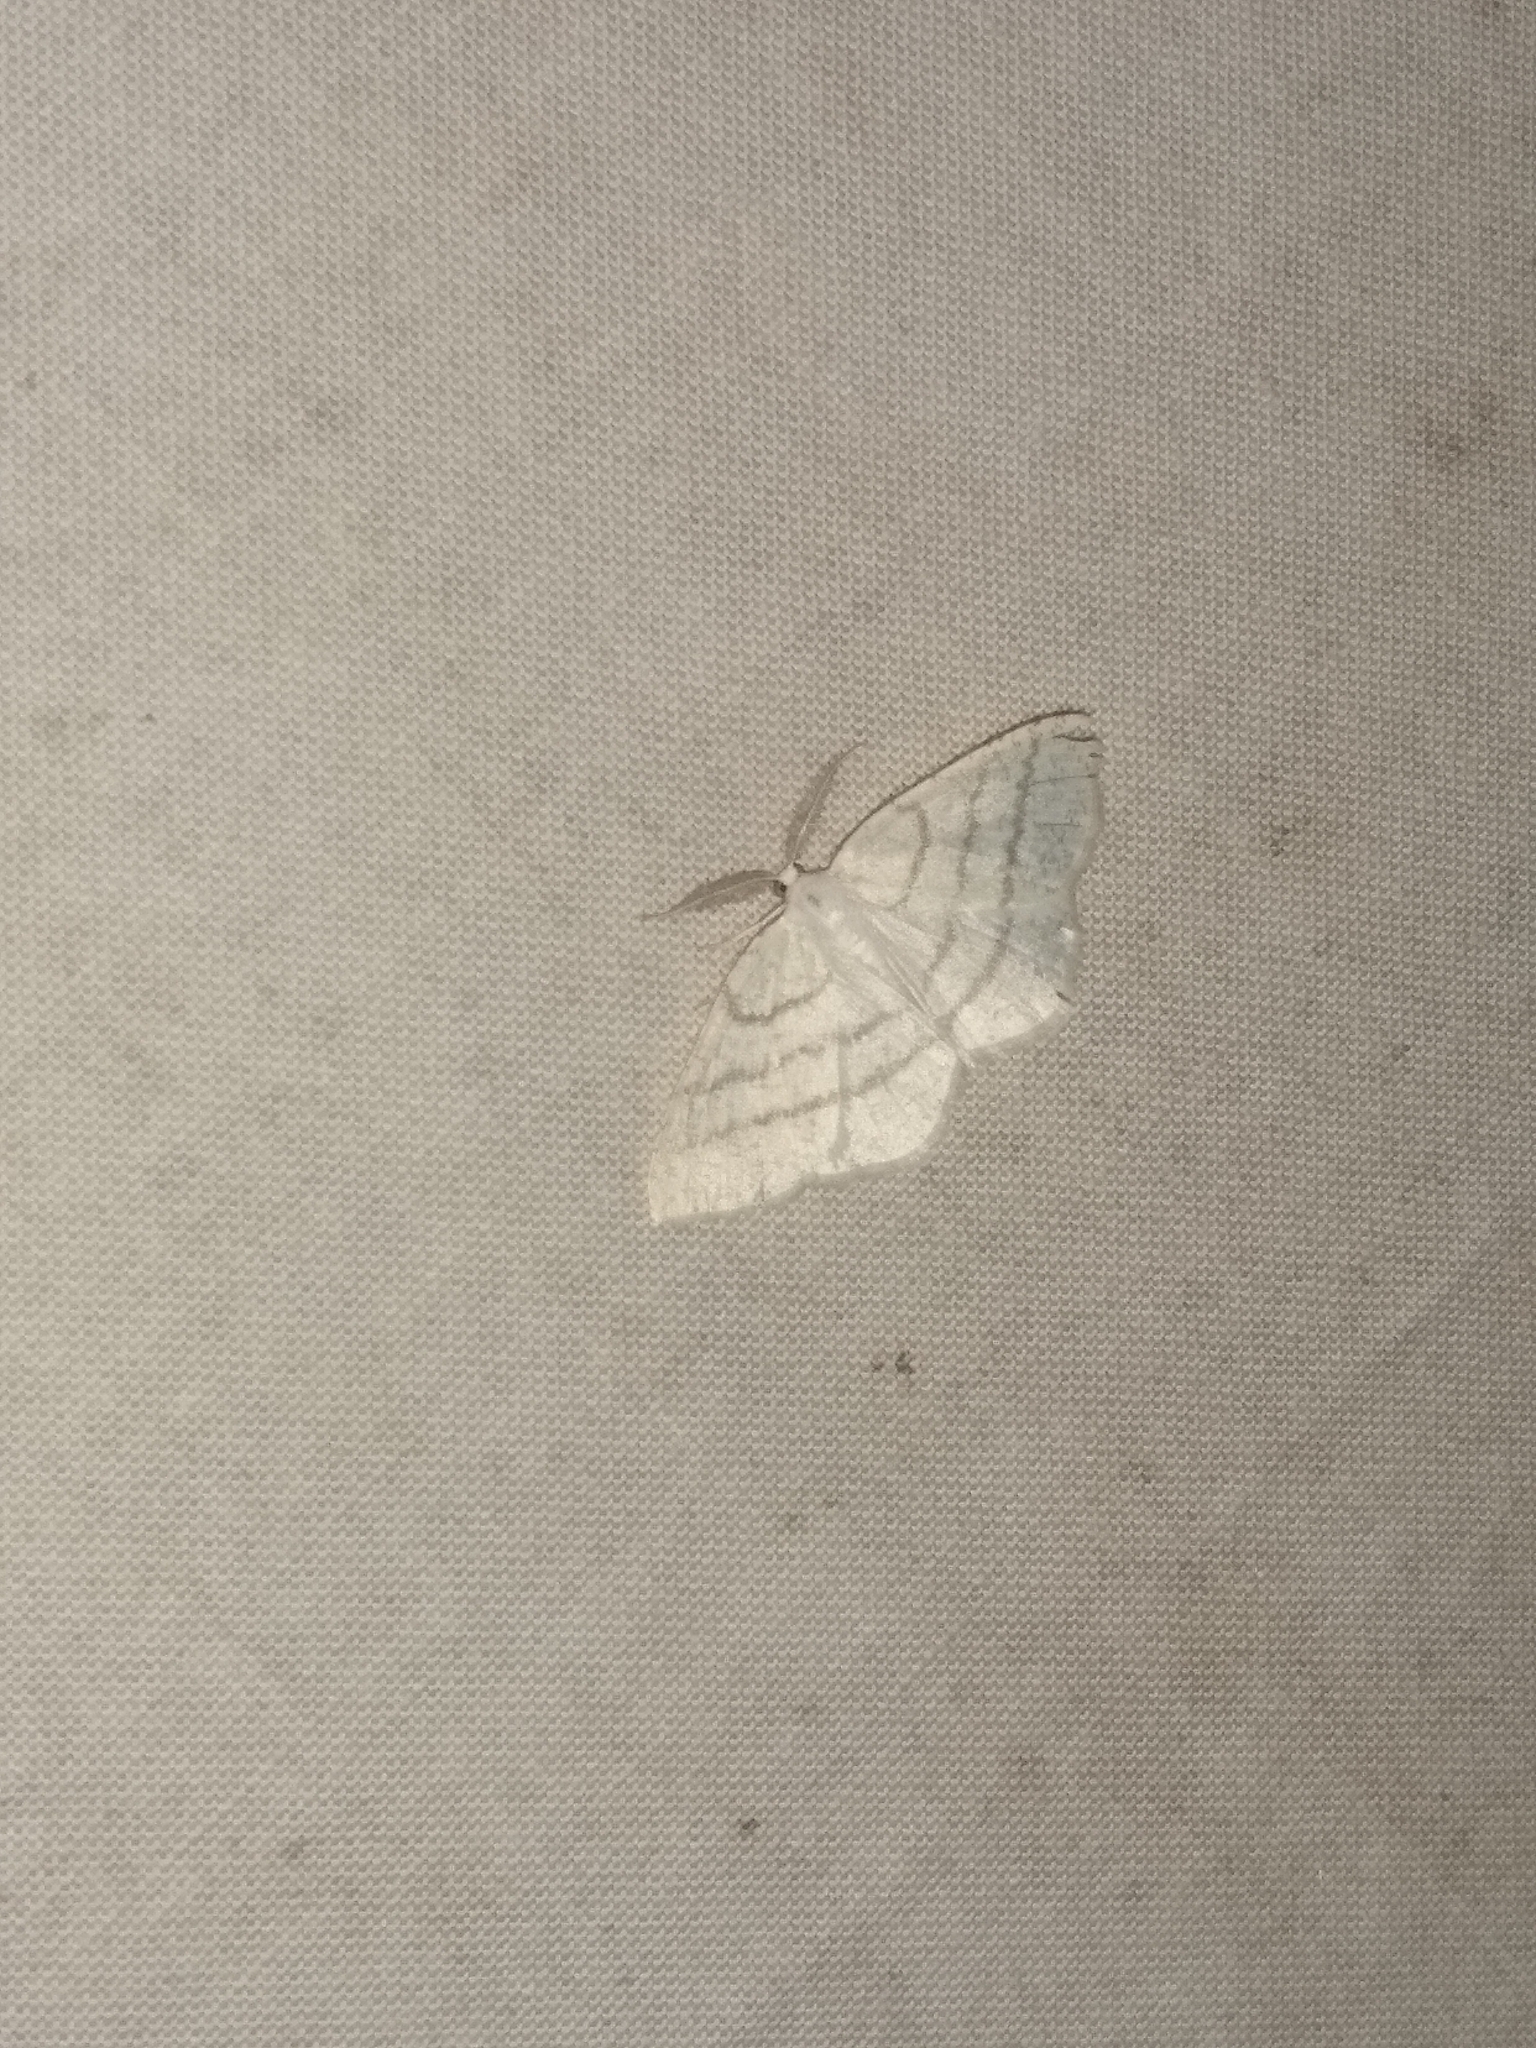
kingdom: Animalia
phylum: Arthropoda
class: Insecta
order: Lepidoptera
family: Geometridae
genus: Cabera
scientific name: Cabera pusaria
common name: Common white wave
